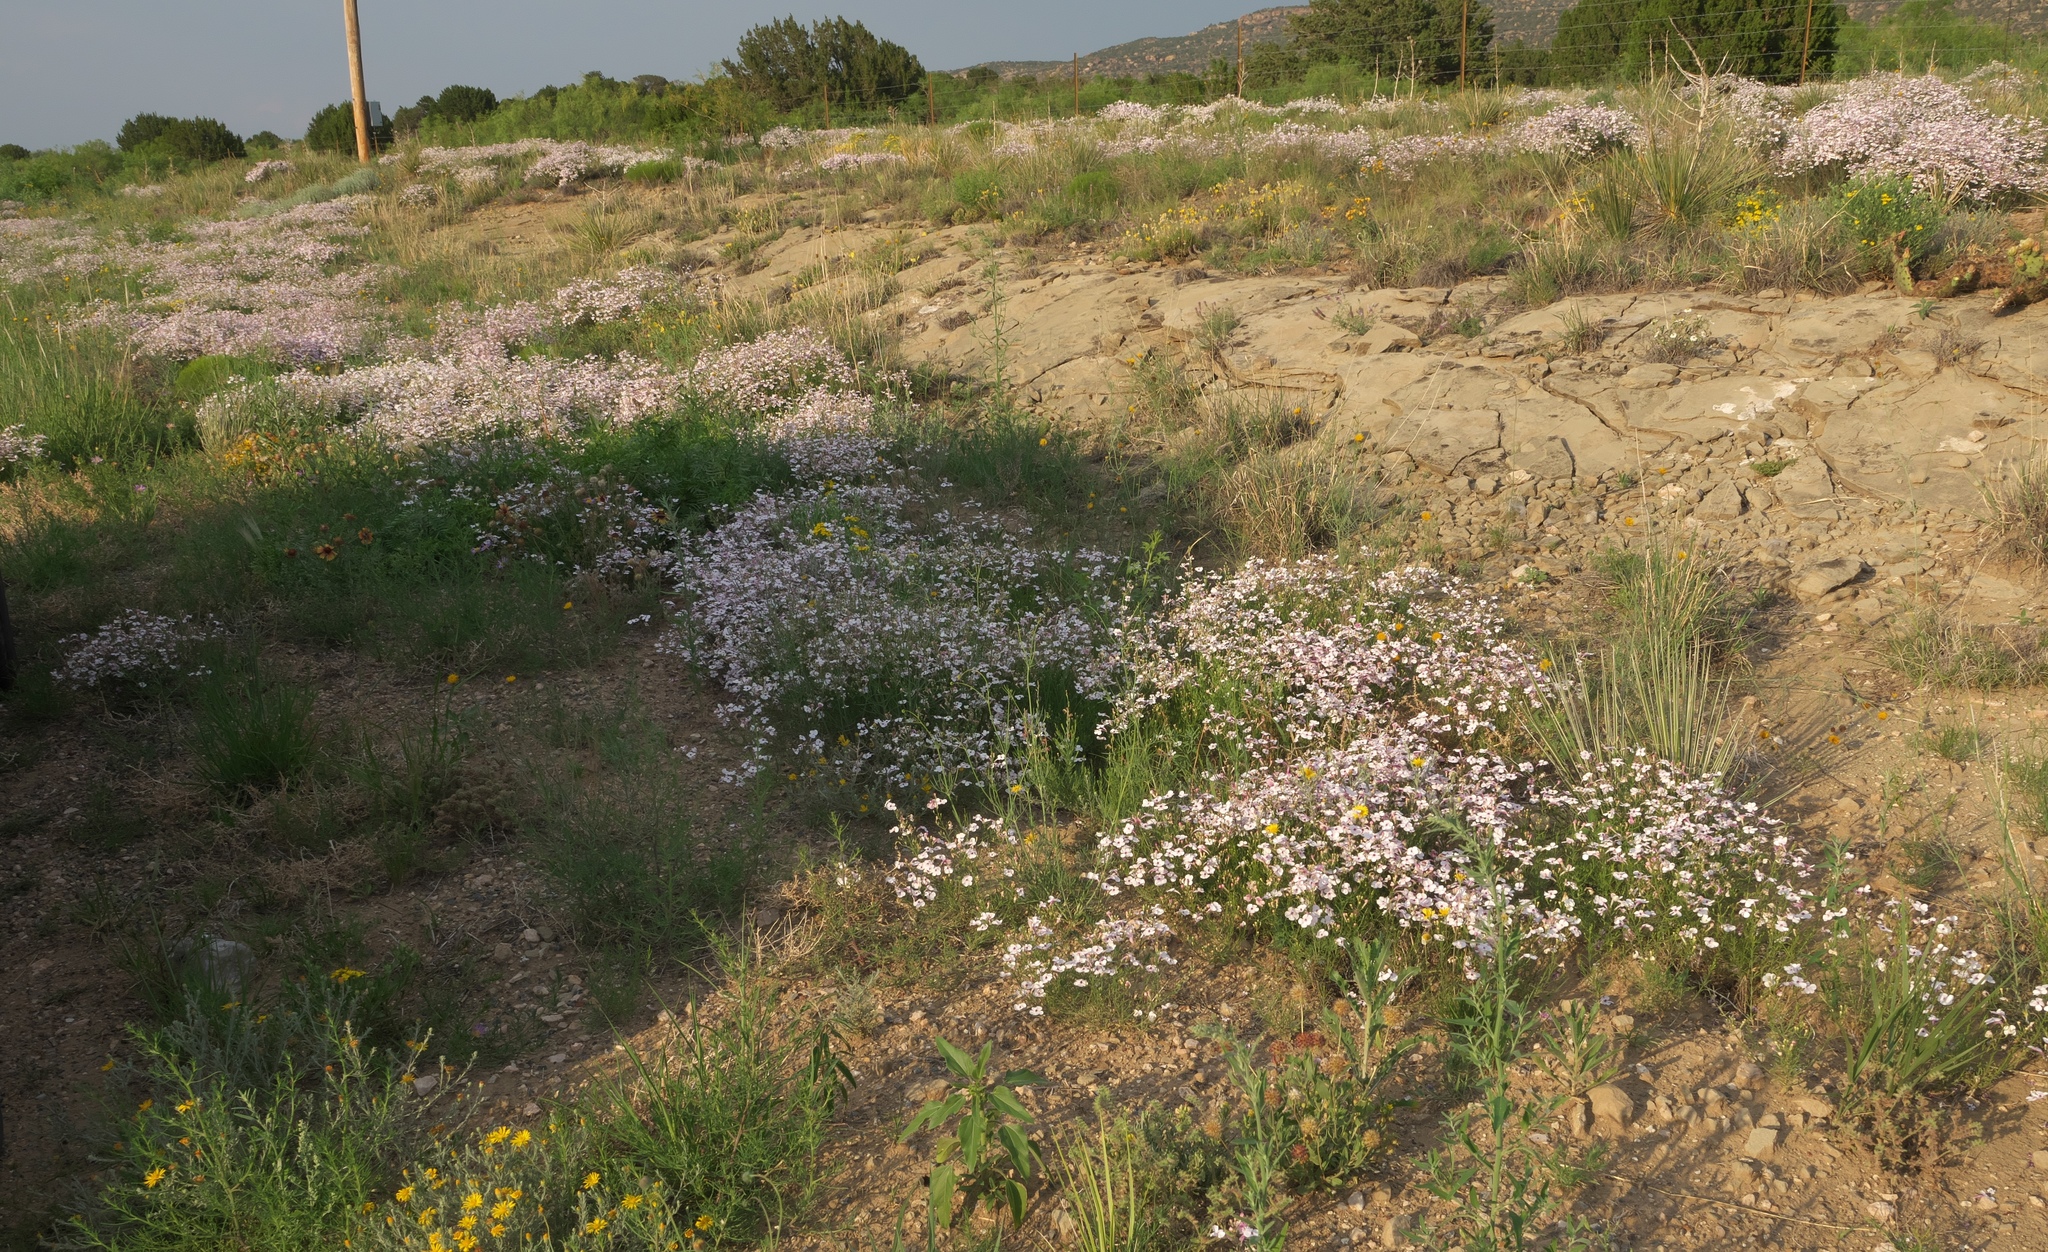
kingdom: Plantae
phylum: Tracheophyta
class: Magnoliopsida
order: Lamiales
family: Plantaginaceae
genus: Penstemon
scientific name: Penstemon ambiguus
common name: Bush penstemon
